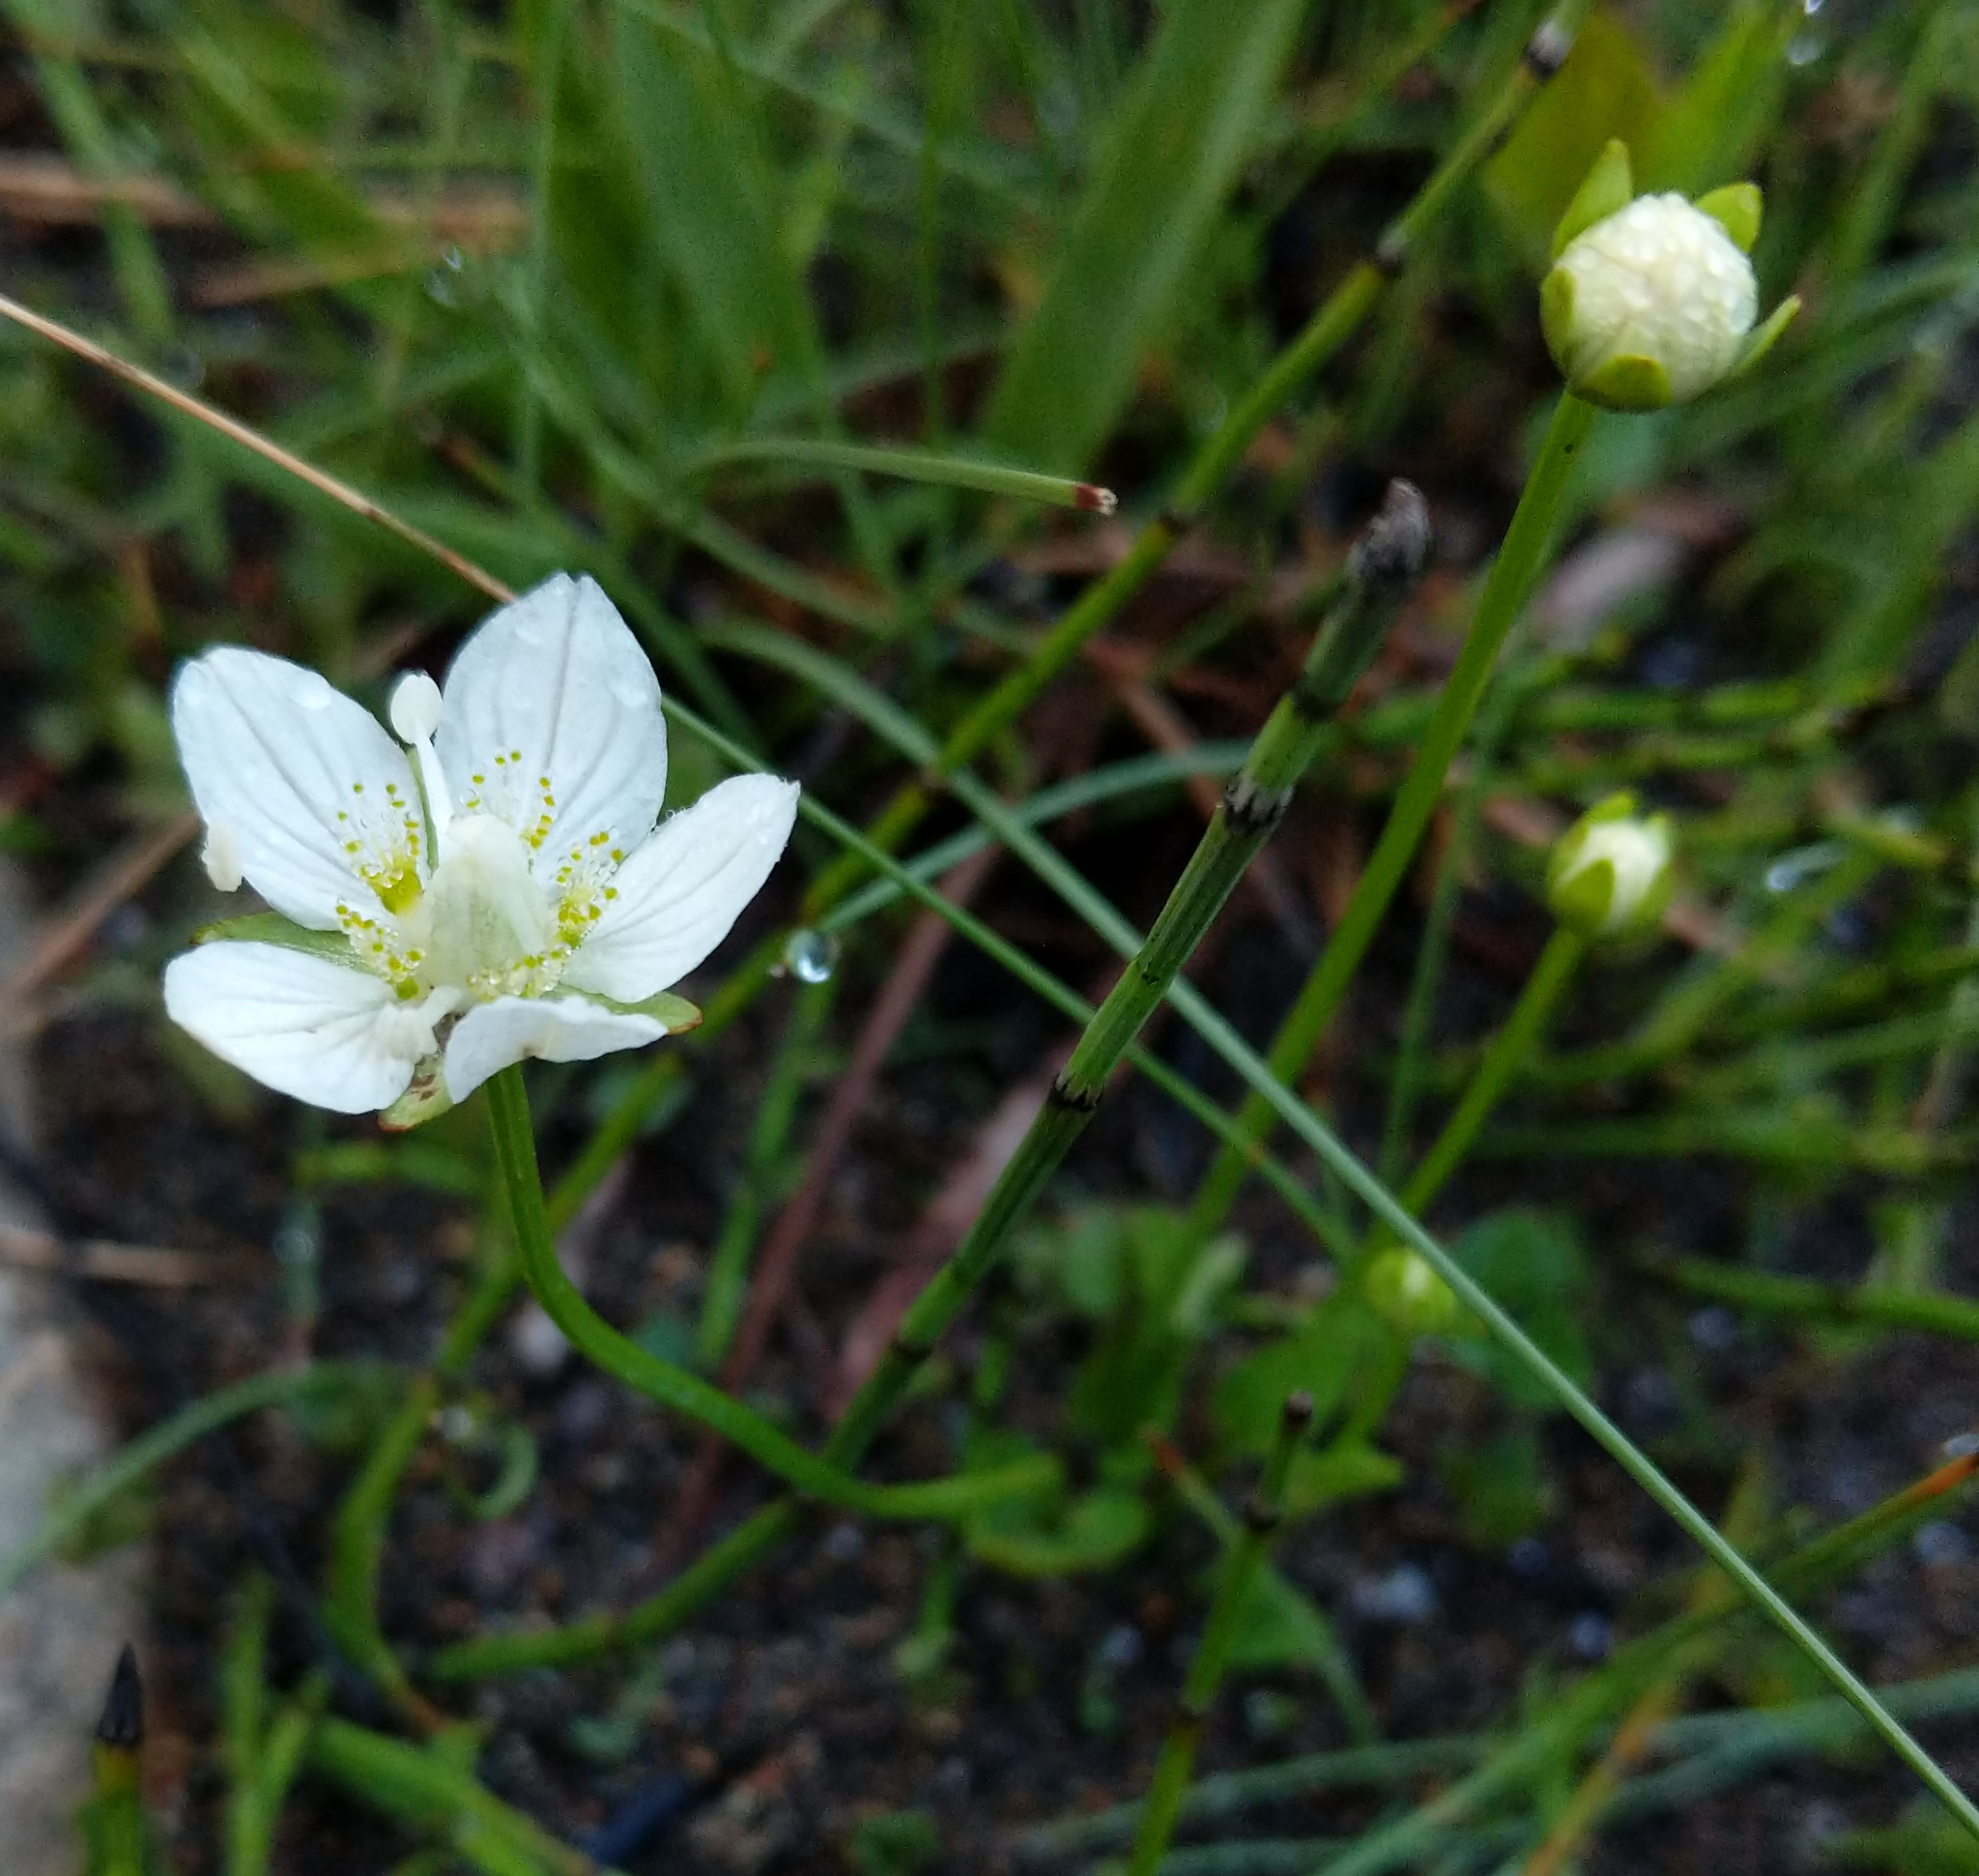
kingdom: Plantae
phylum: Tracheophyta
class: Magnoliopsida
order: Celastrales
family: Parnassiaceae
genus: Parnassia
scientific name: Parnassia palustris
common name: Grass-of-parnassus
